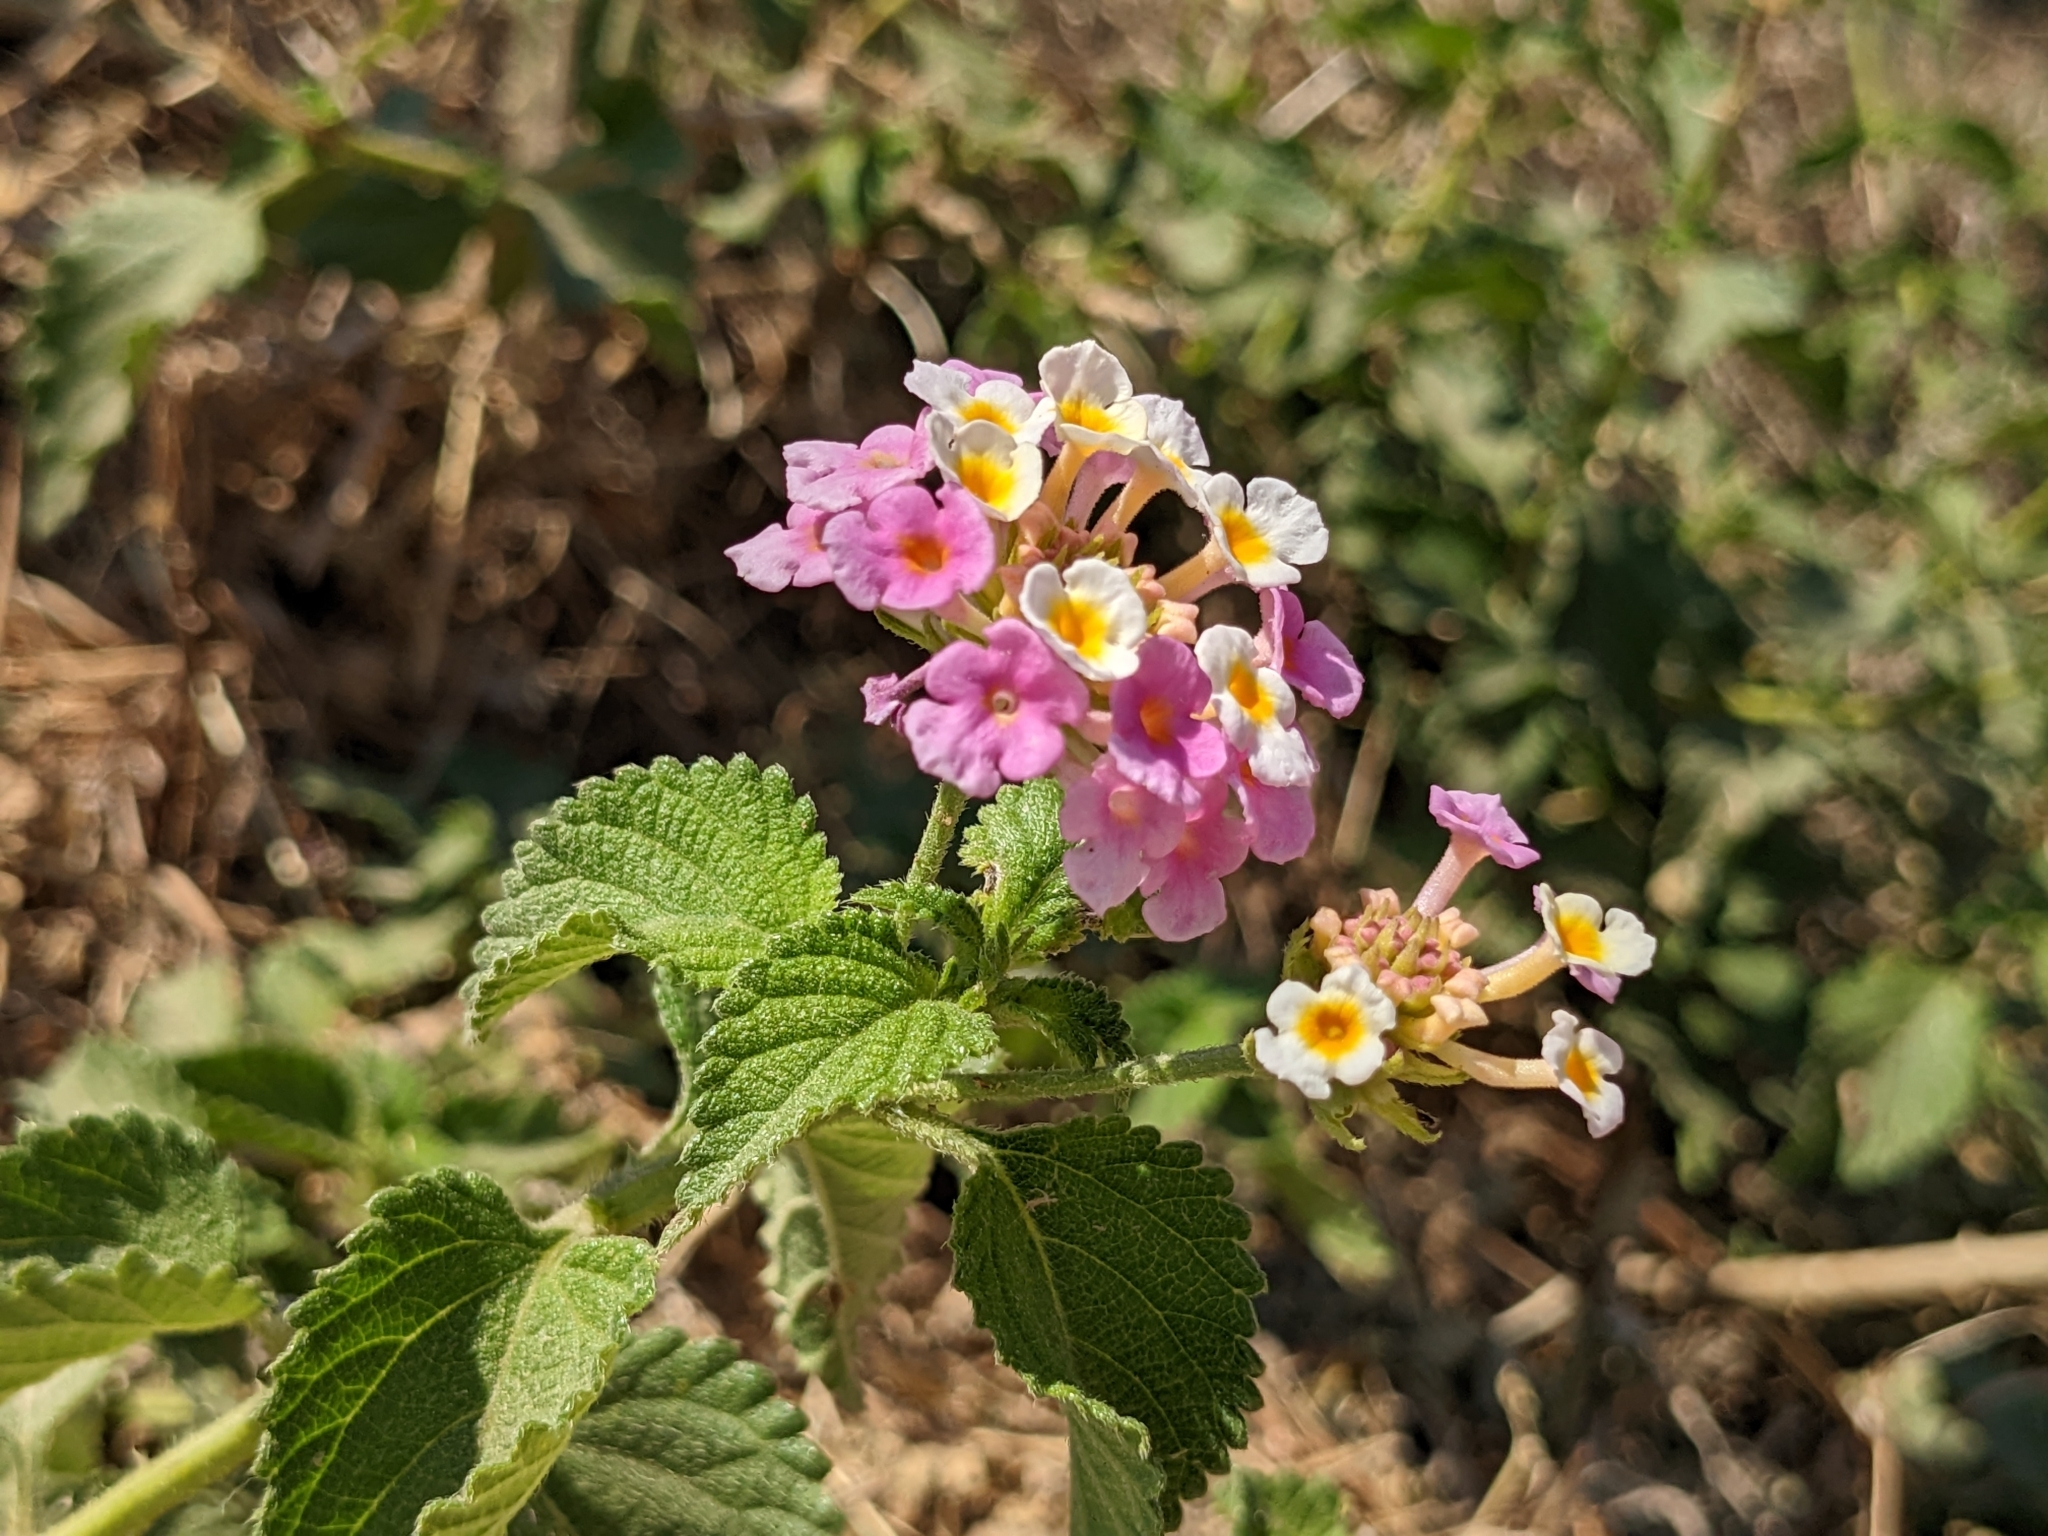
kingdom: Plantae
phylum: Tracheophyta
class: Magnoliopsida
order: Lamiales
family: Verbenaceae
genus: Lantana
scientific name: Lantana camara
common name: Lantana
